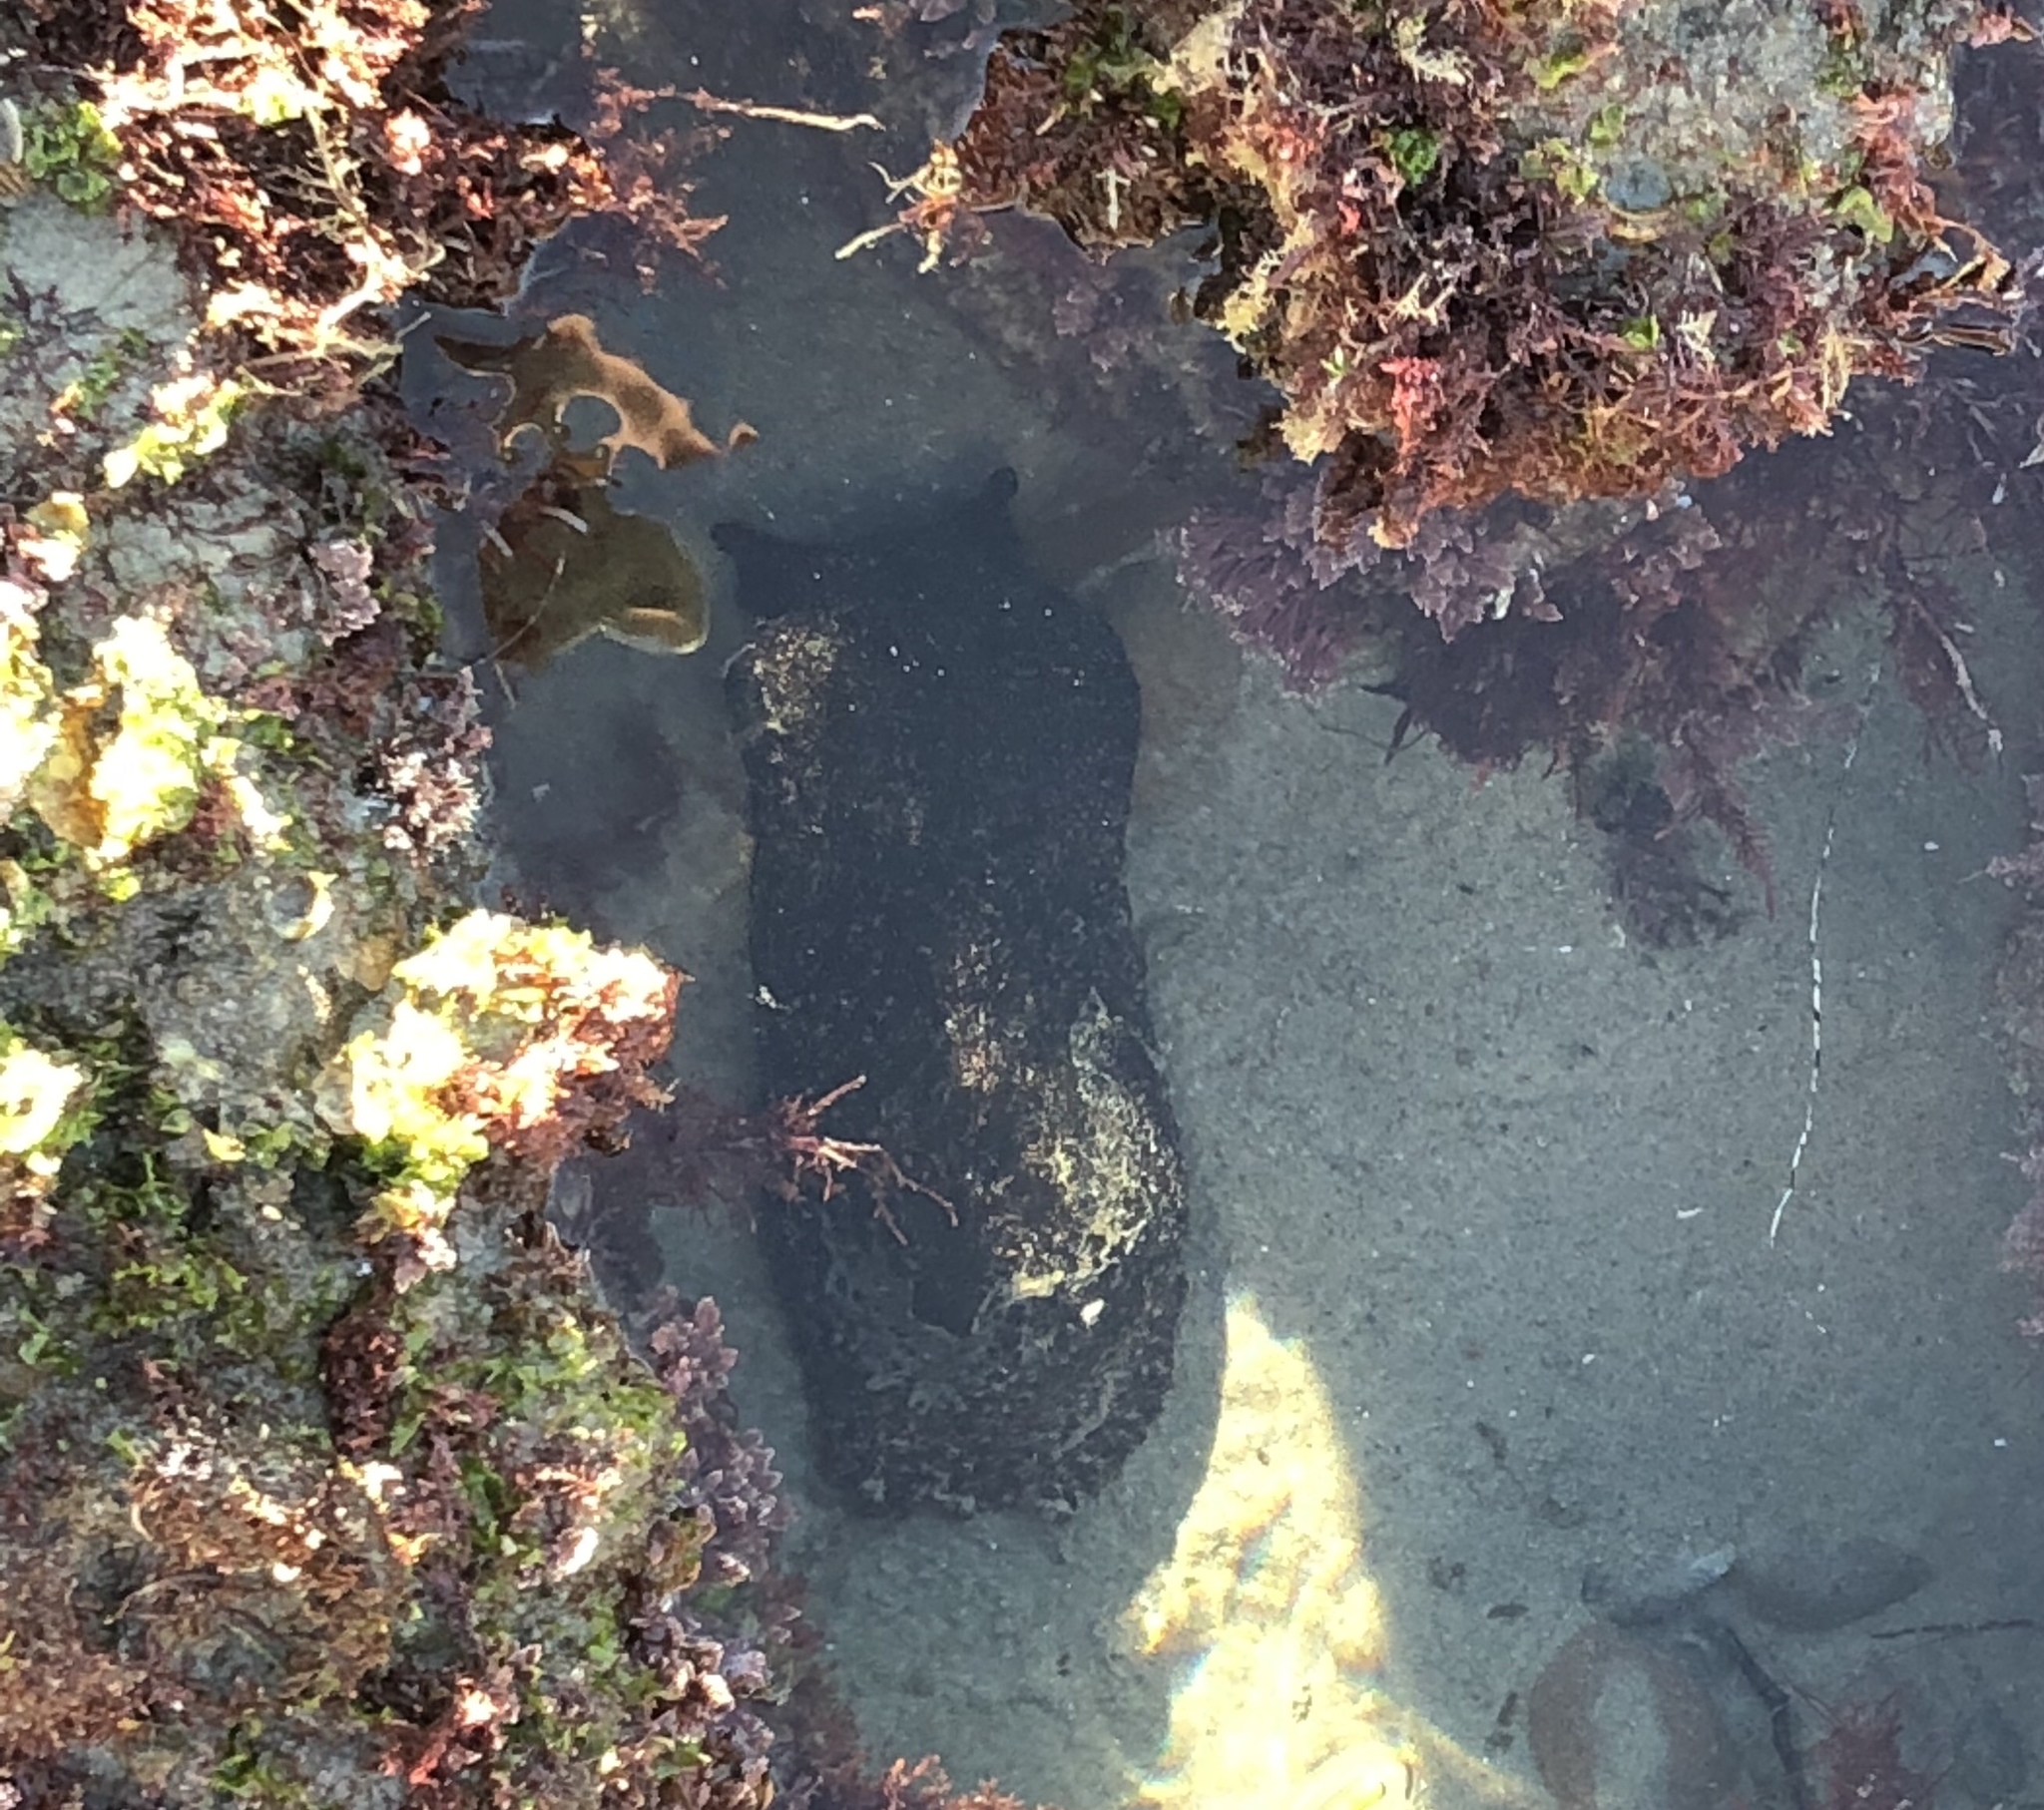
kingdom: Animalia
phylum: Mollusca
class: Gastropoda
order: Aplysiida
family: Aplysiidae
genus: Aplysia
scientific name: Aplysia vaccaria
